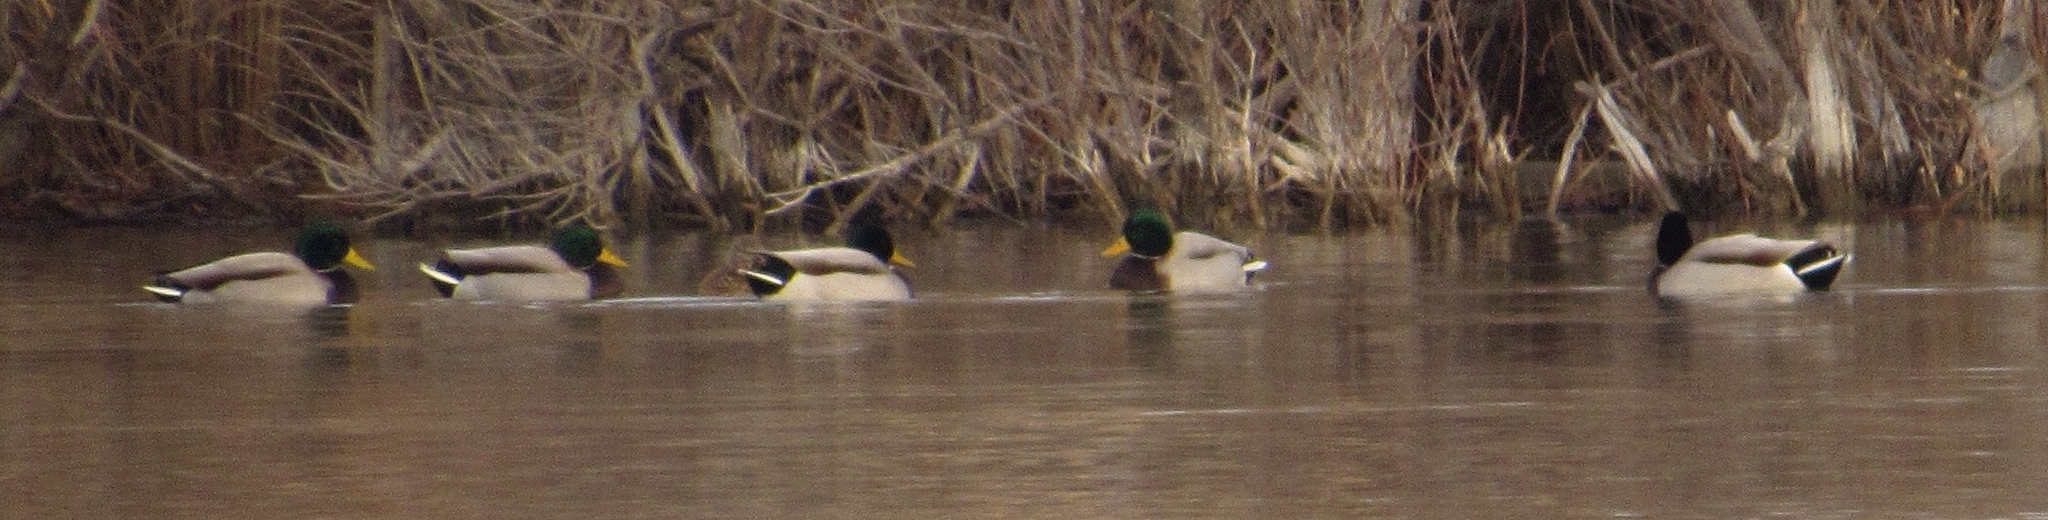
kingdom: Animalia
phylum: Chordata
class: Aves
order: Anseriformes
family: Anatidae
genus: Anas
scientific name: Anas platyrhynchos
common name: Mallard
